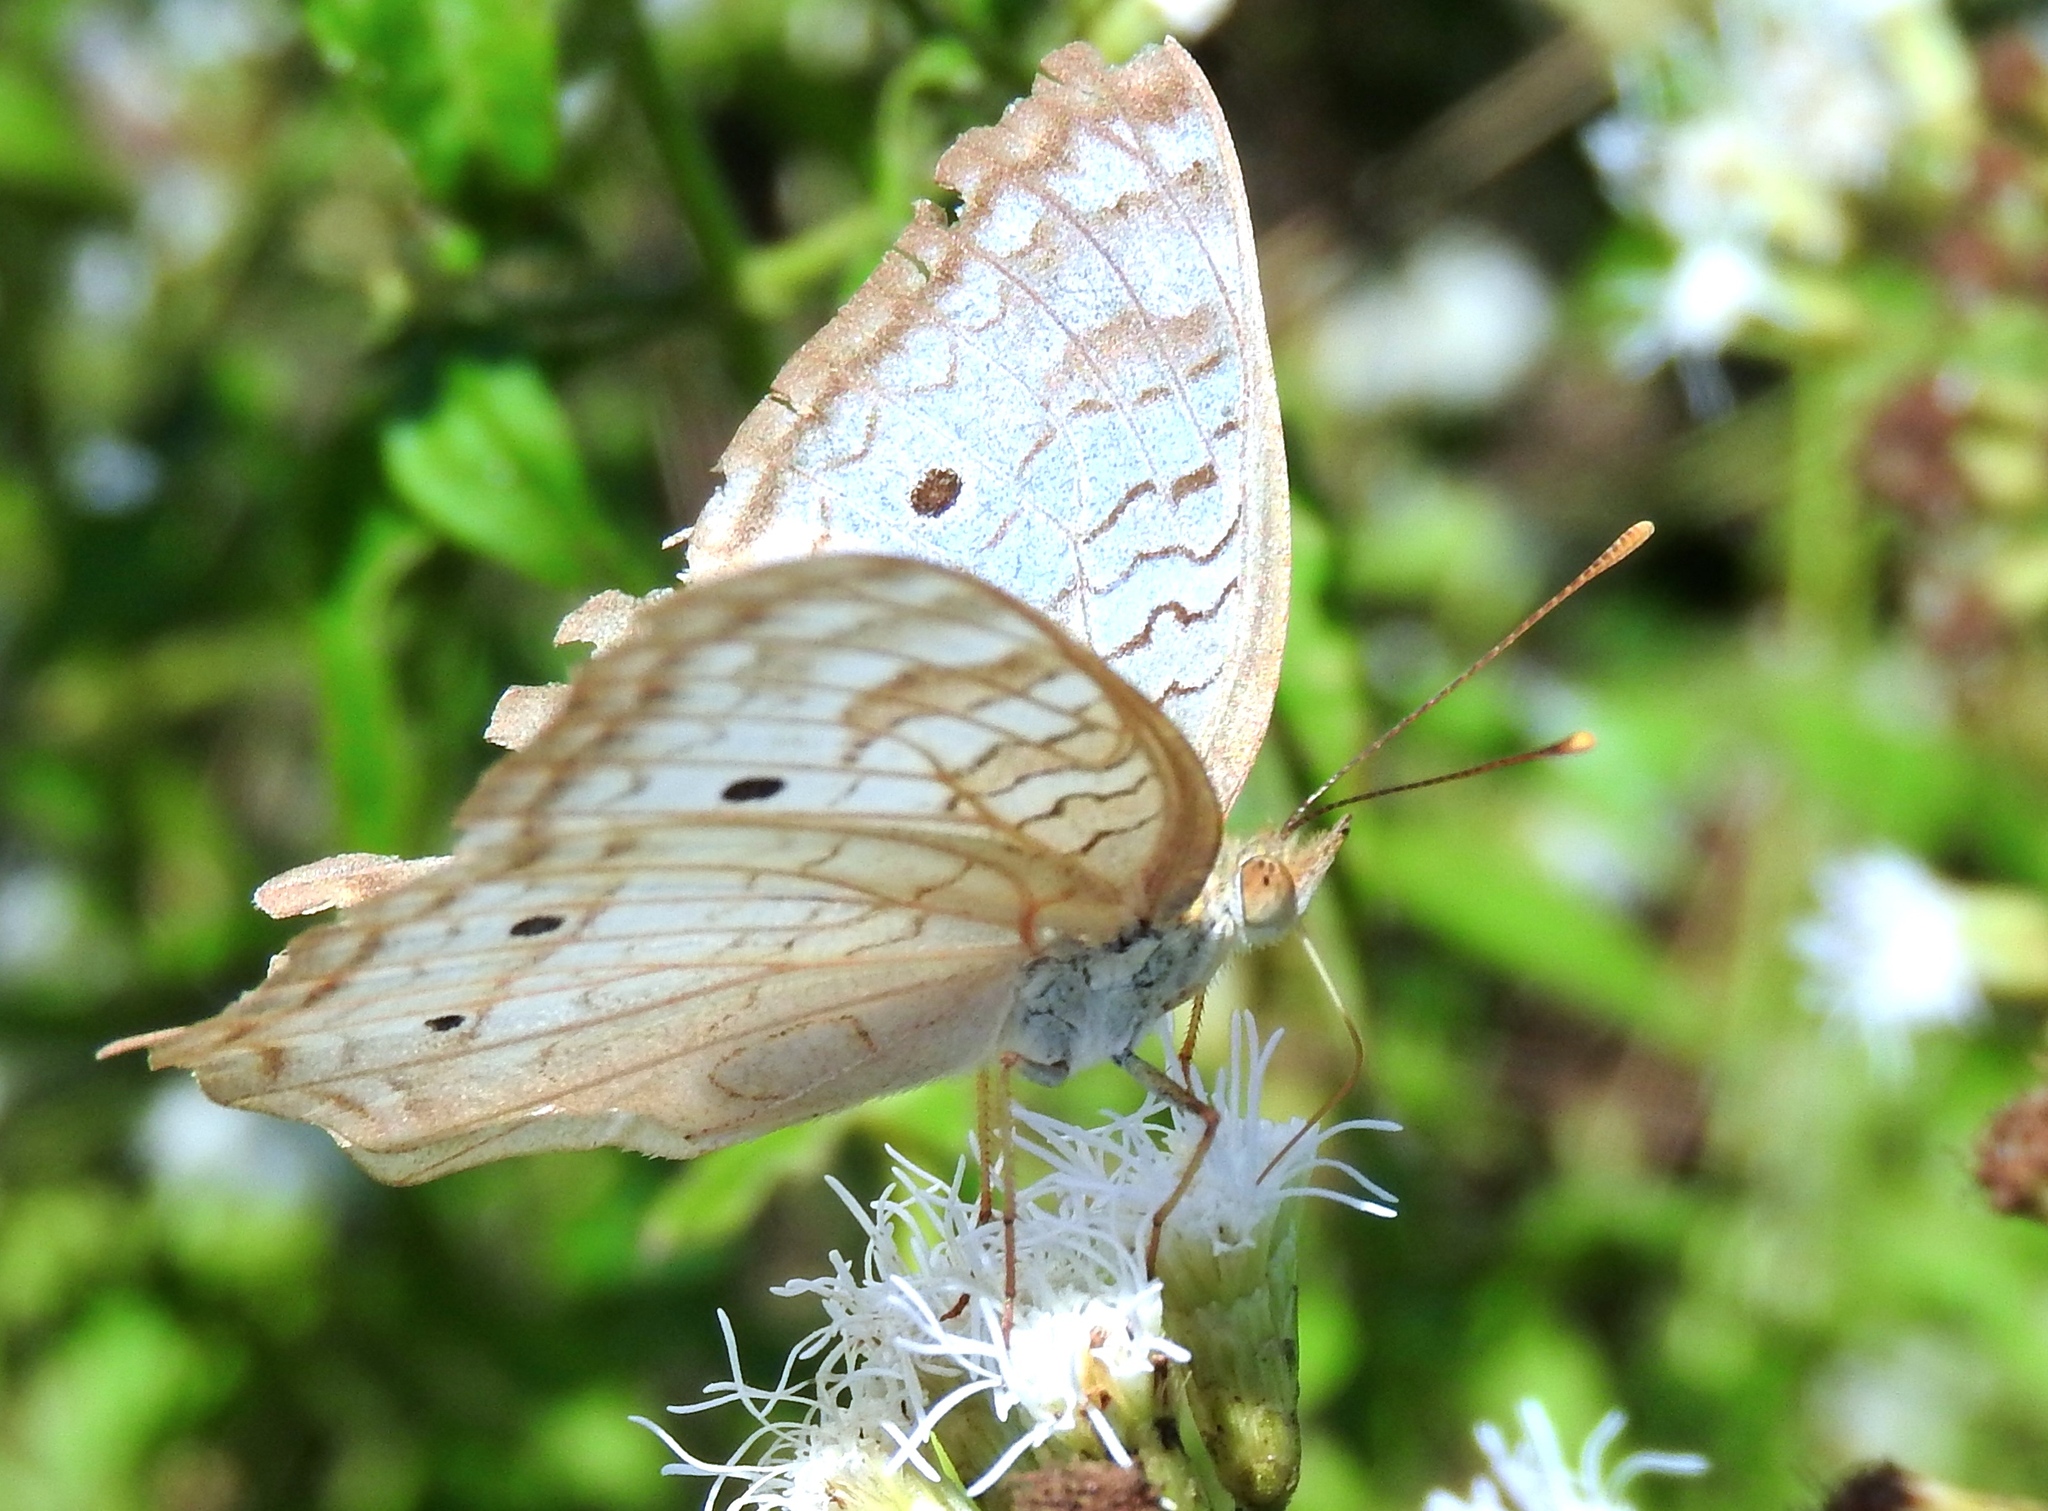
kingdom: Animalia
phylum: Arthropoda
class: Insecta
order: Lepidoptera
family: Nymphalidae
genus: Anartia
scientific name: Anartia jatrophae
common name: White peacock
